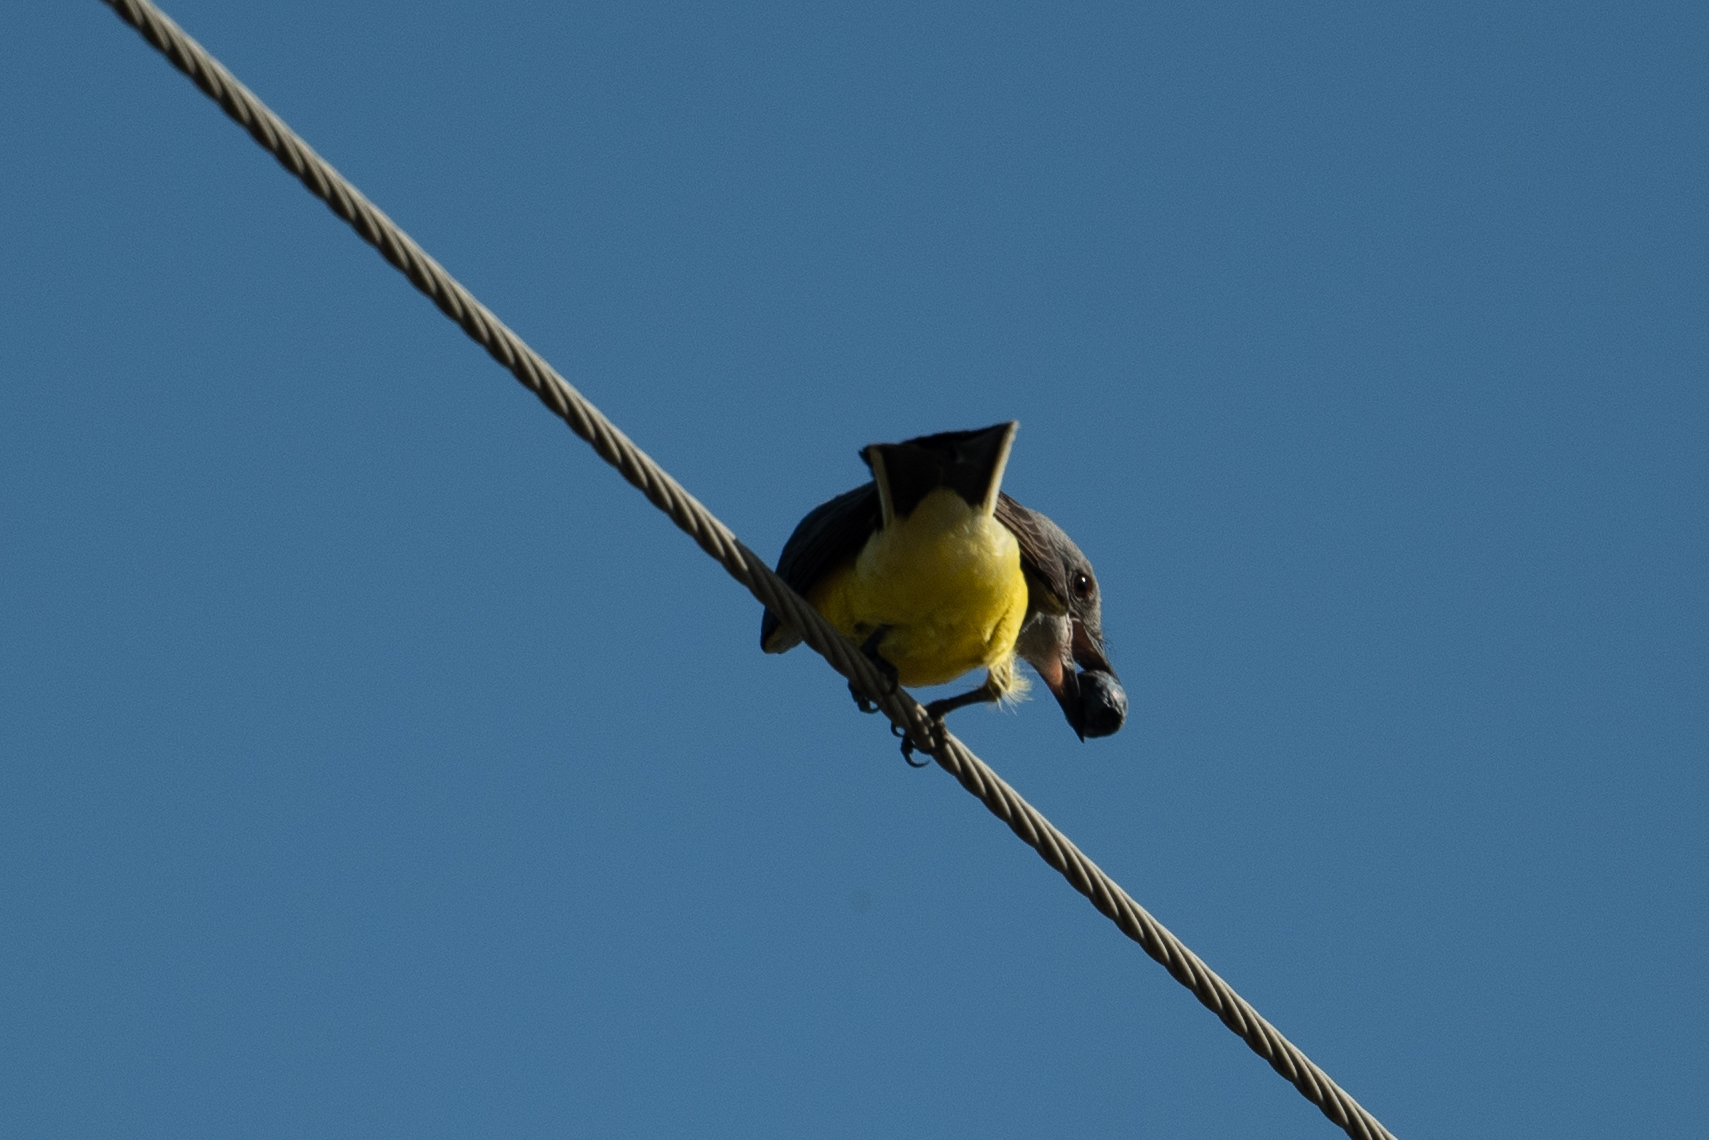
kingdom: Animalia
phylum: Chordata
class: Aves
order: Passeriformes
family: Tyrannidae
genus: Tyrannus
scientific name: Tyrannus verticalis
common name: Western kingbird
